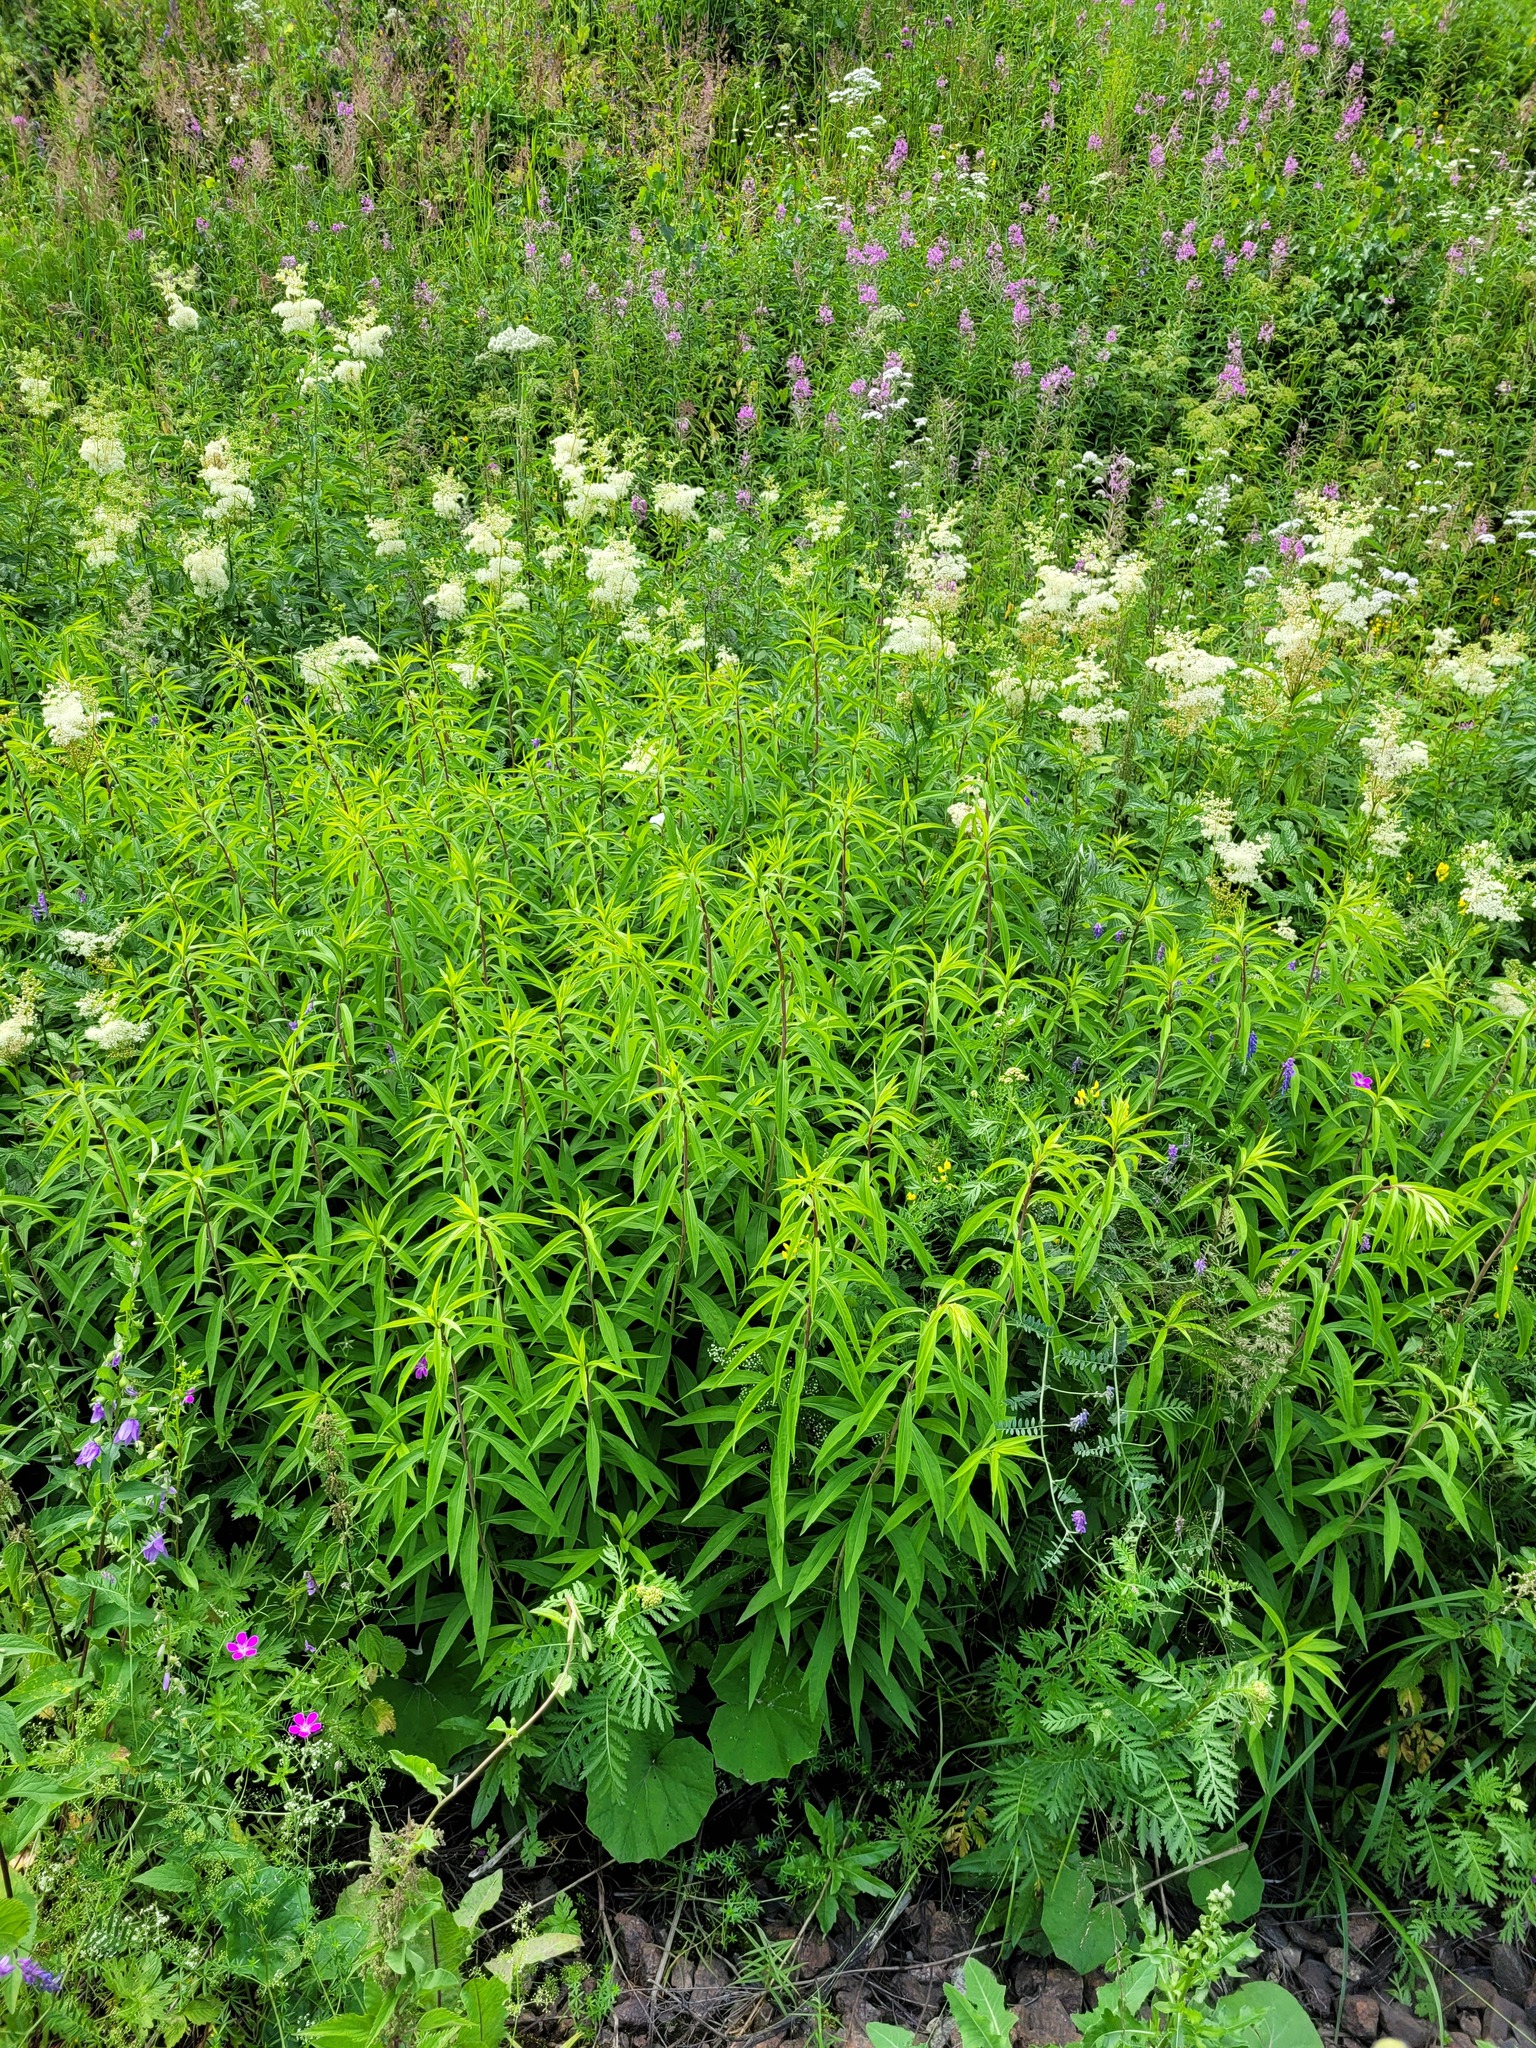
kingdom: Plantae
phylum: Tracheophyta
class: Magnoliopsida
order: Asterales
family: Asteraceae
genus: Solidago
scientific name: Solidago gigantea
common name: Giant goldenrod
